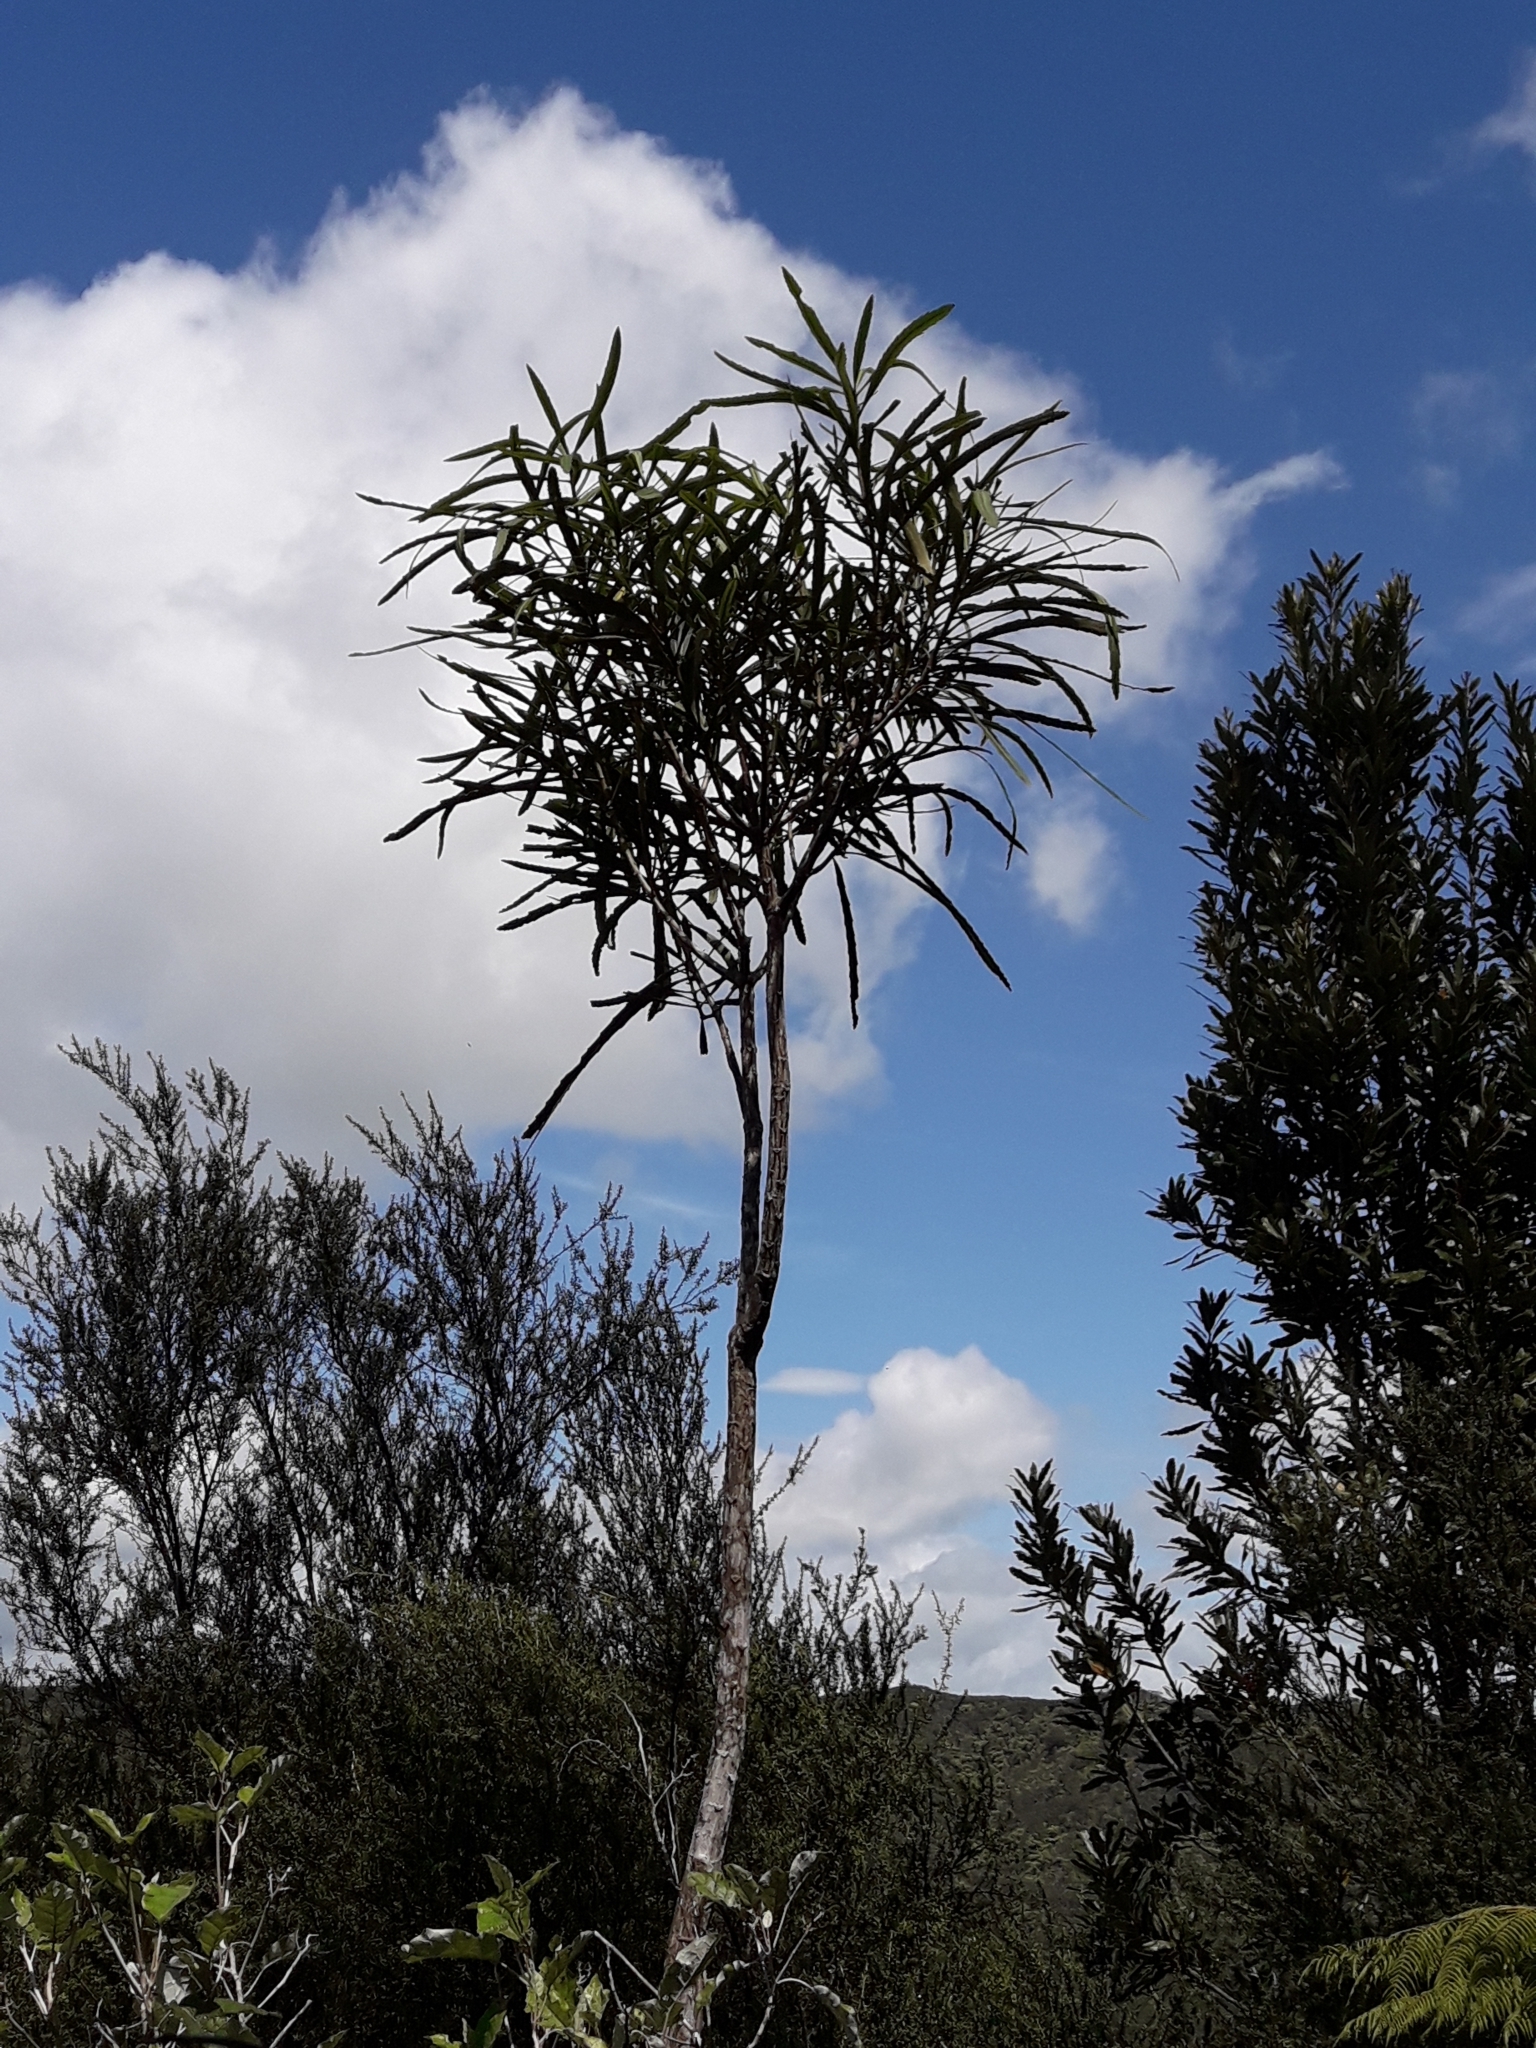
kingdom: Plantae
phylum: Tracheophyta
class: Magnoliopsida
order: Apiales
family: Araliaceae
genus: Pseudopanax
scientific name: Pseudopanax crassifolius
